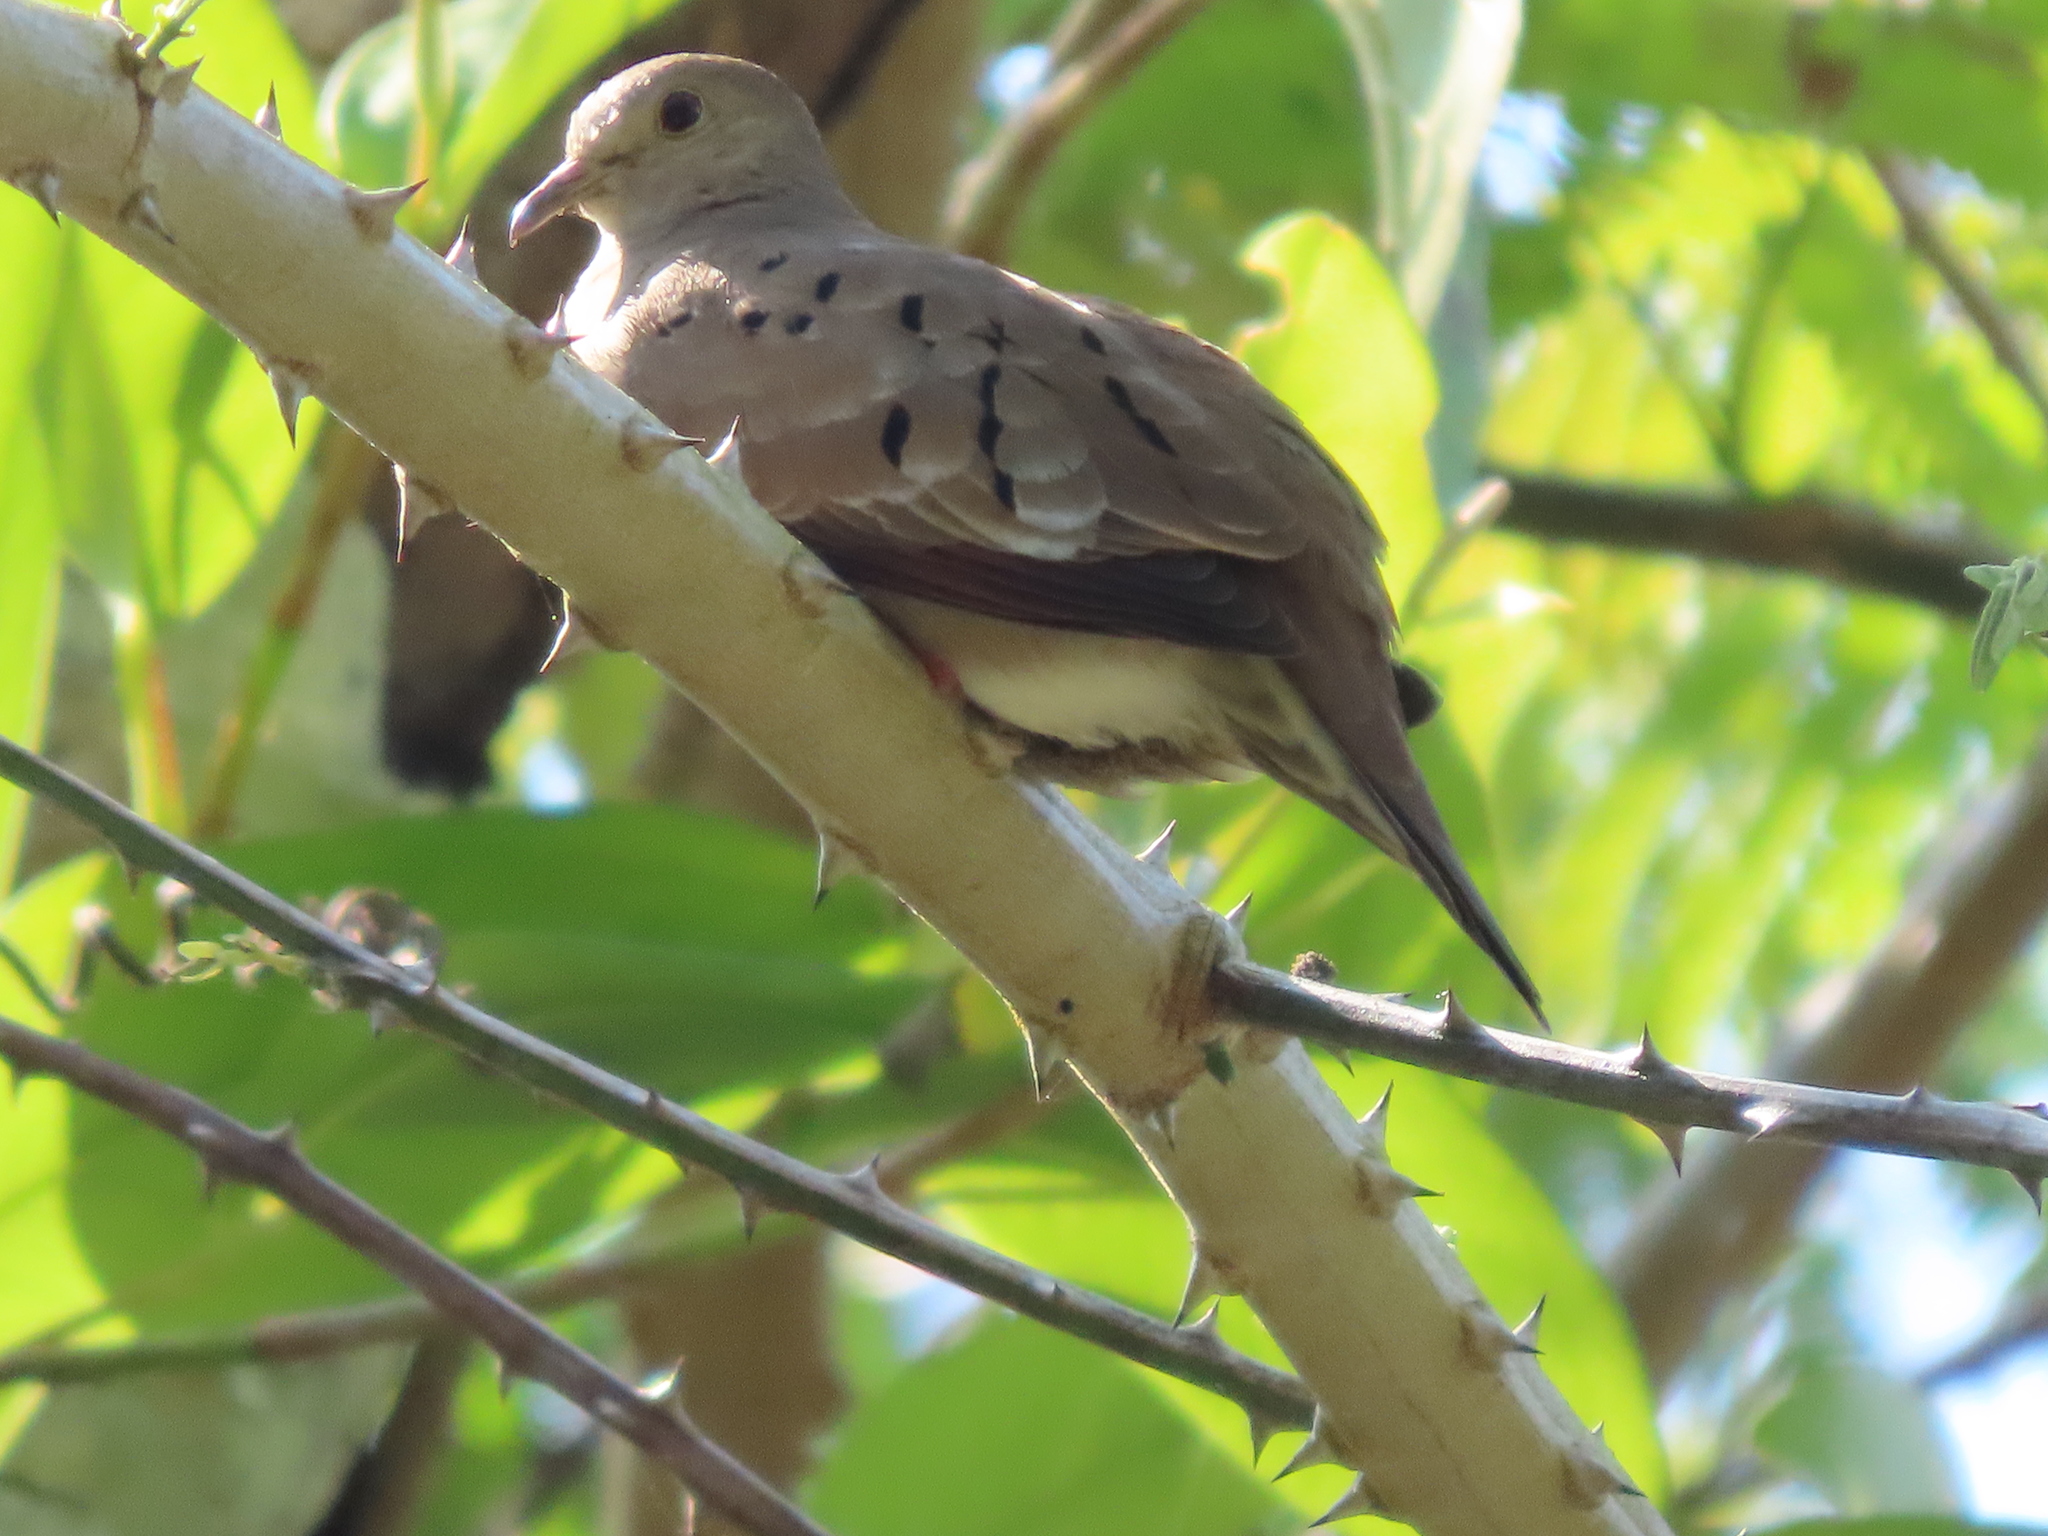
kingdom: Animalia
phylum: Chordata
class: Aves
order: Columbiformes
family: Columbidae
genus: Columbina
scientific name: Columbina talpacoti
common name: Ruddy ground dove
